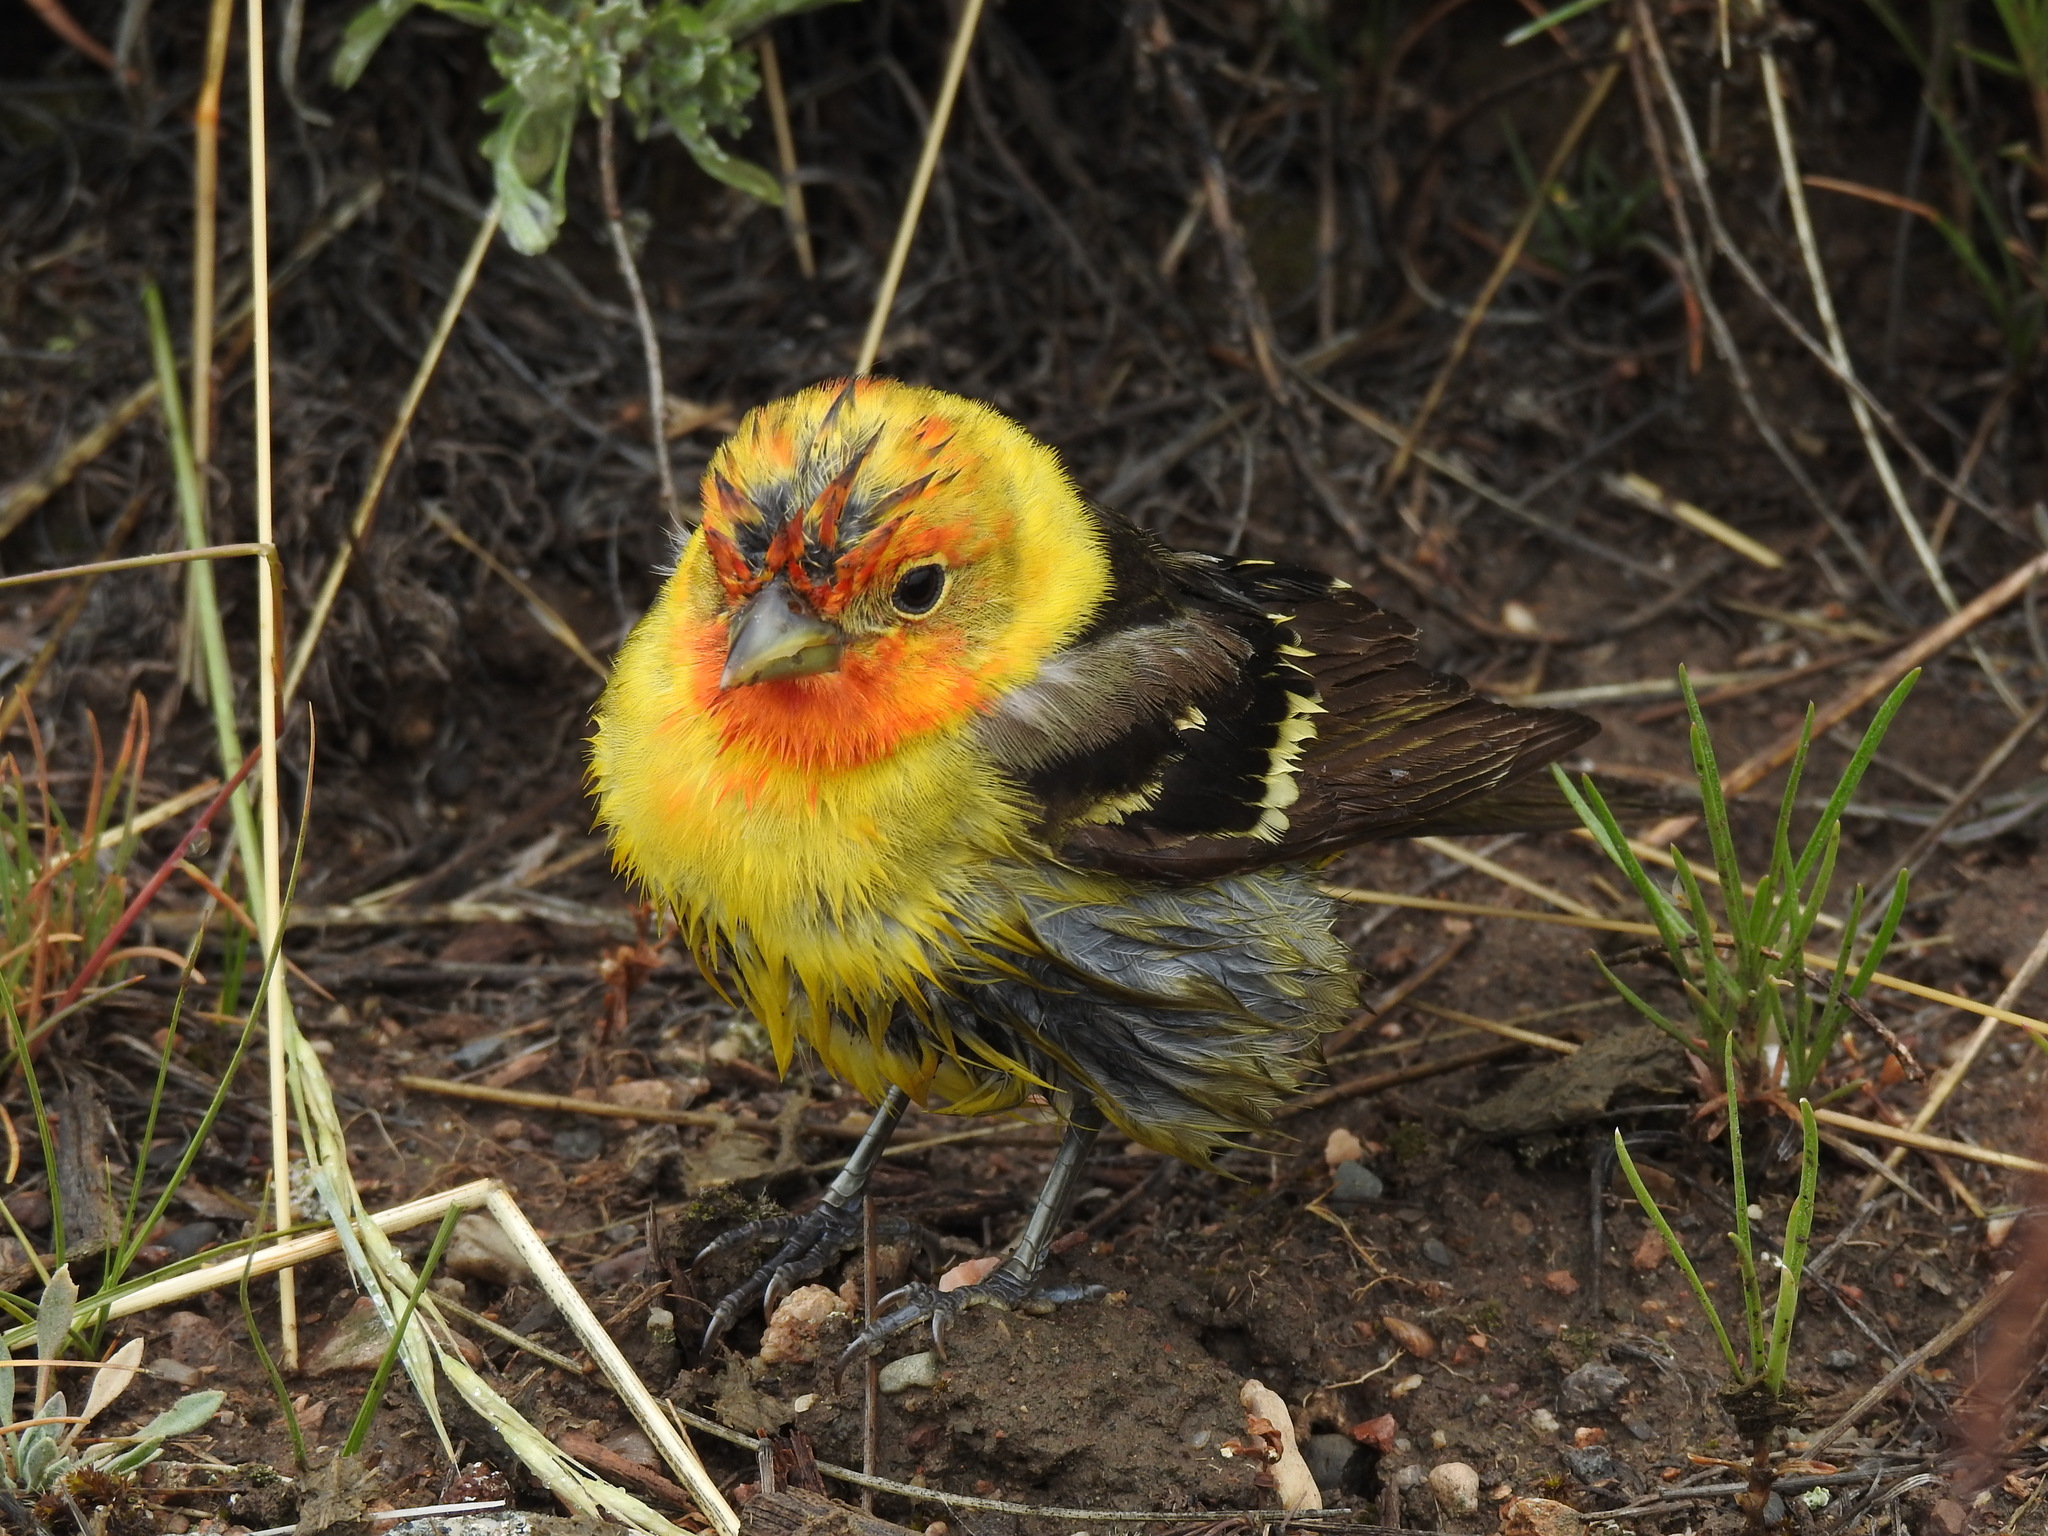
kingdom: Animalia
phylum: Chordata
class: Aves
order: Passeriformes
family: Cardinalidae
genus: Piranga
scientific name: Piranga ludoviciana
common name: Western tanager
